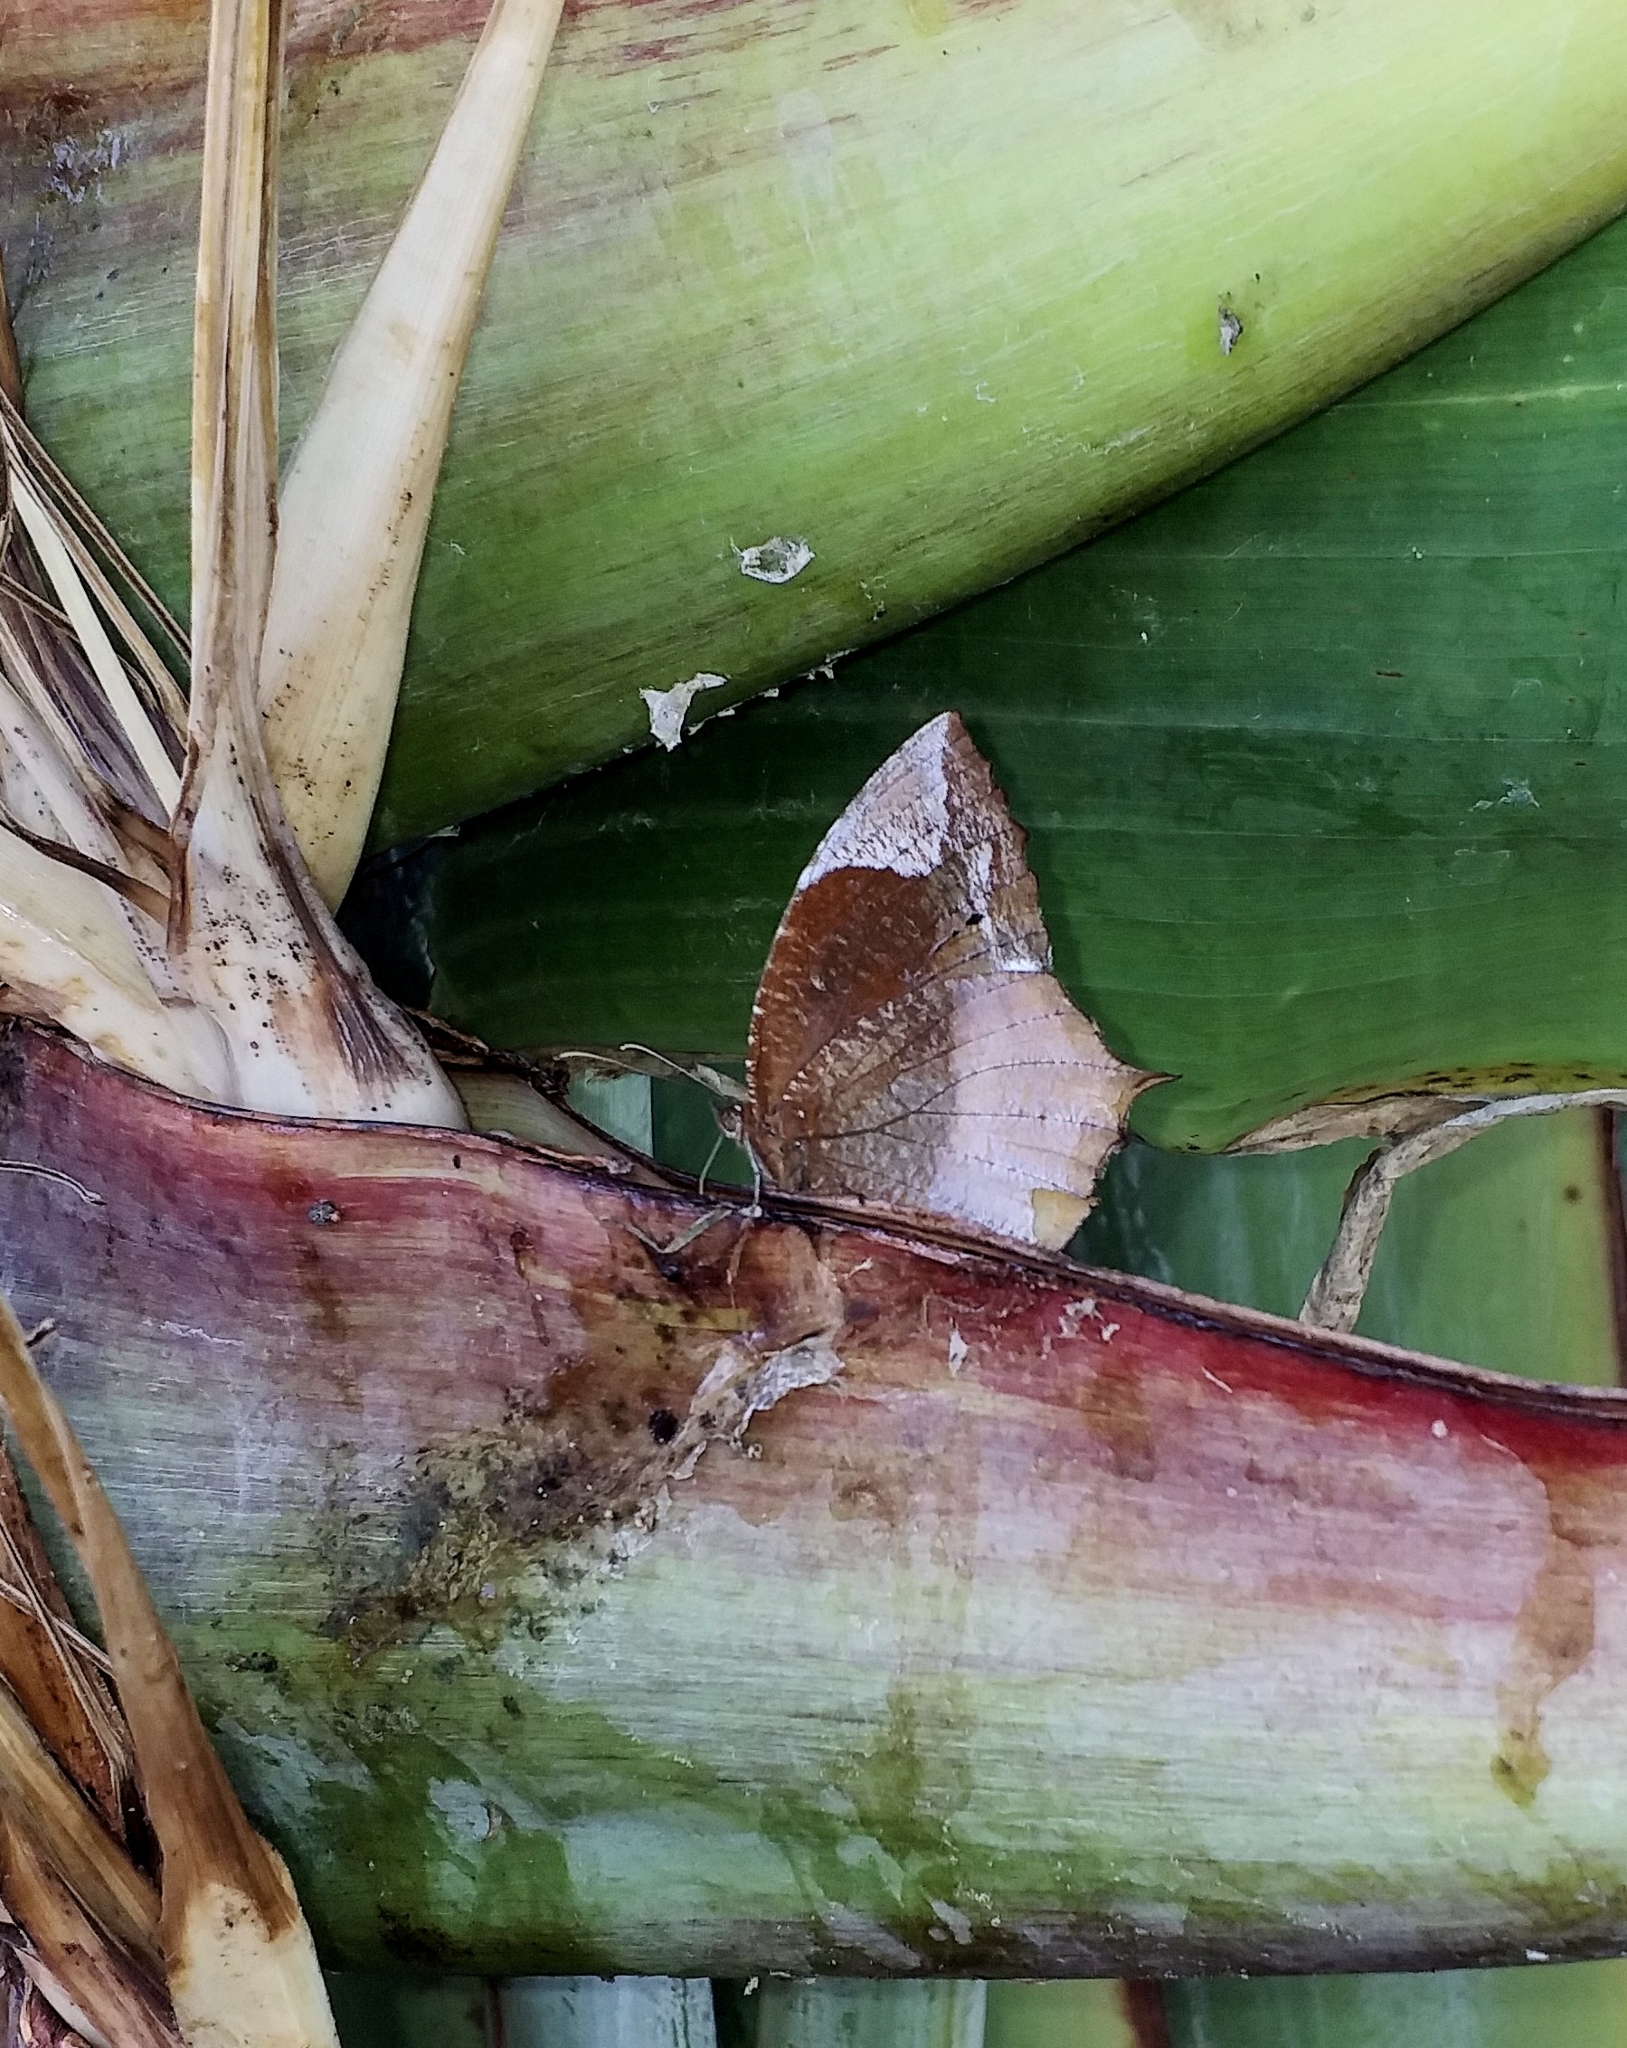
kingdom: Animalia
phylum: Arthropoda
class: Insecta
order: Lepidoptera
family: Nymphalidae
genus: Elymnias
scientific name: Elymnias caudata
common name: Tailed palmfly
